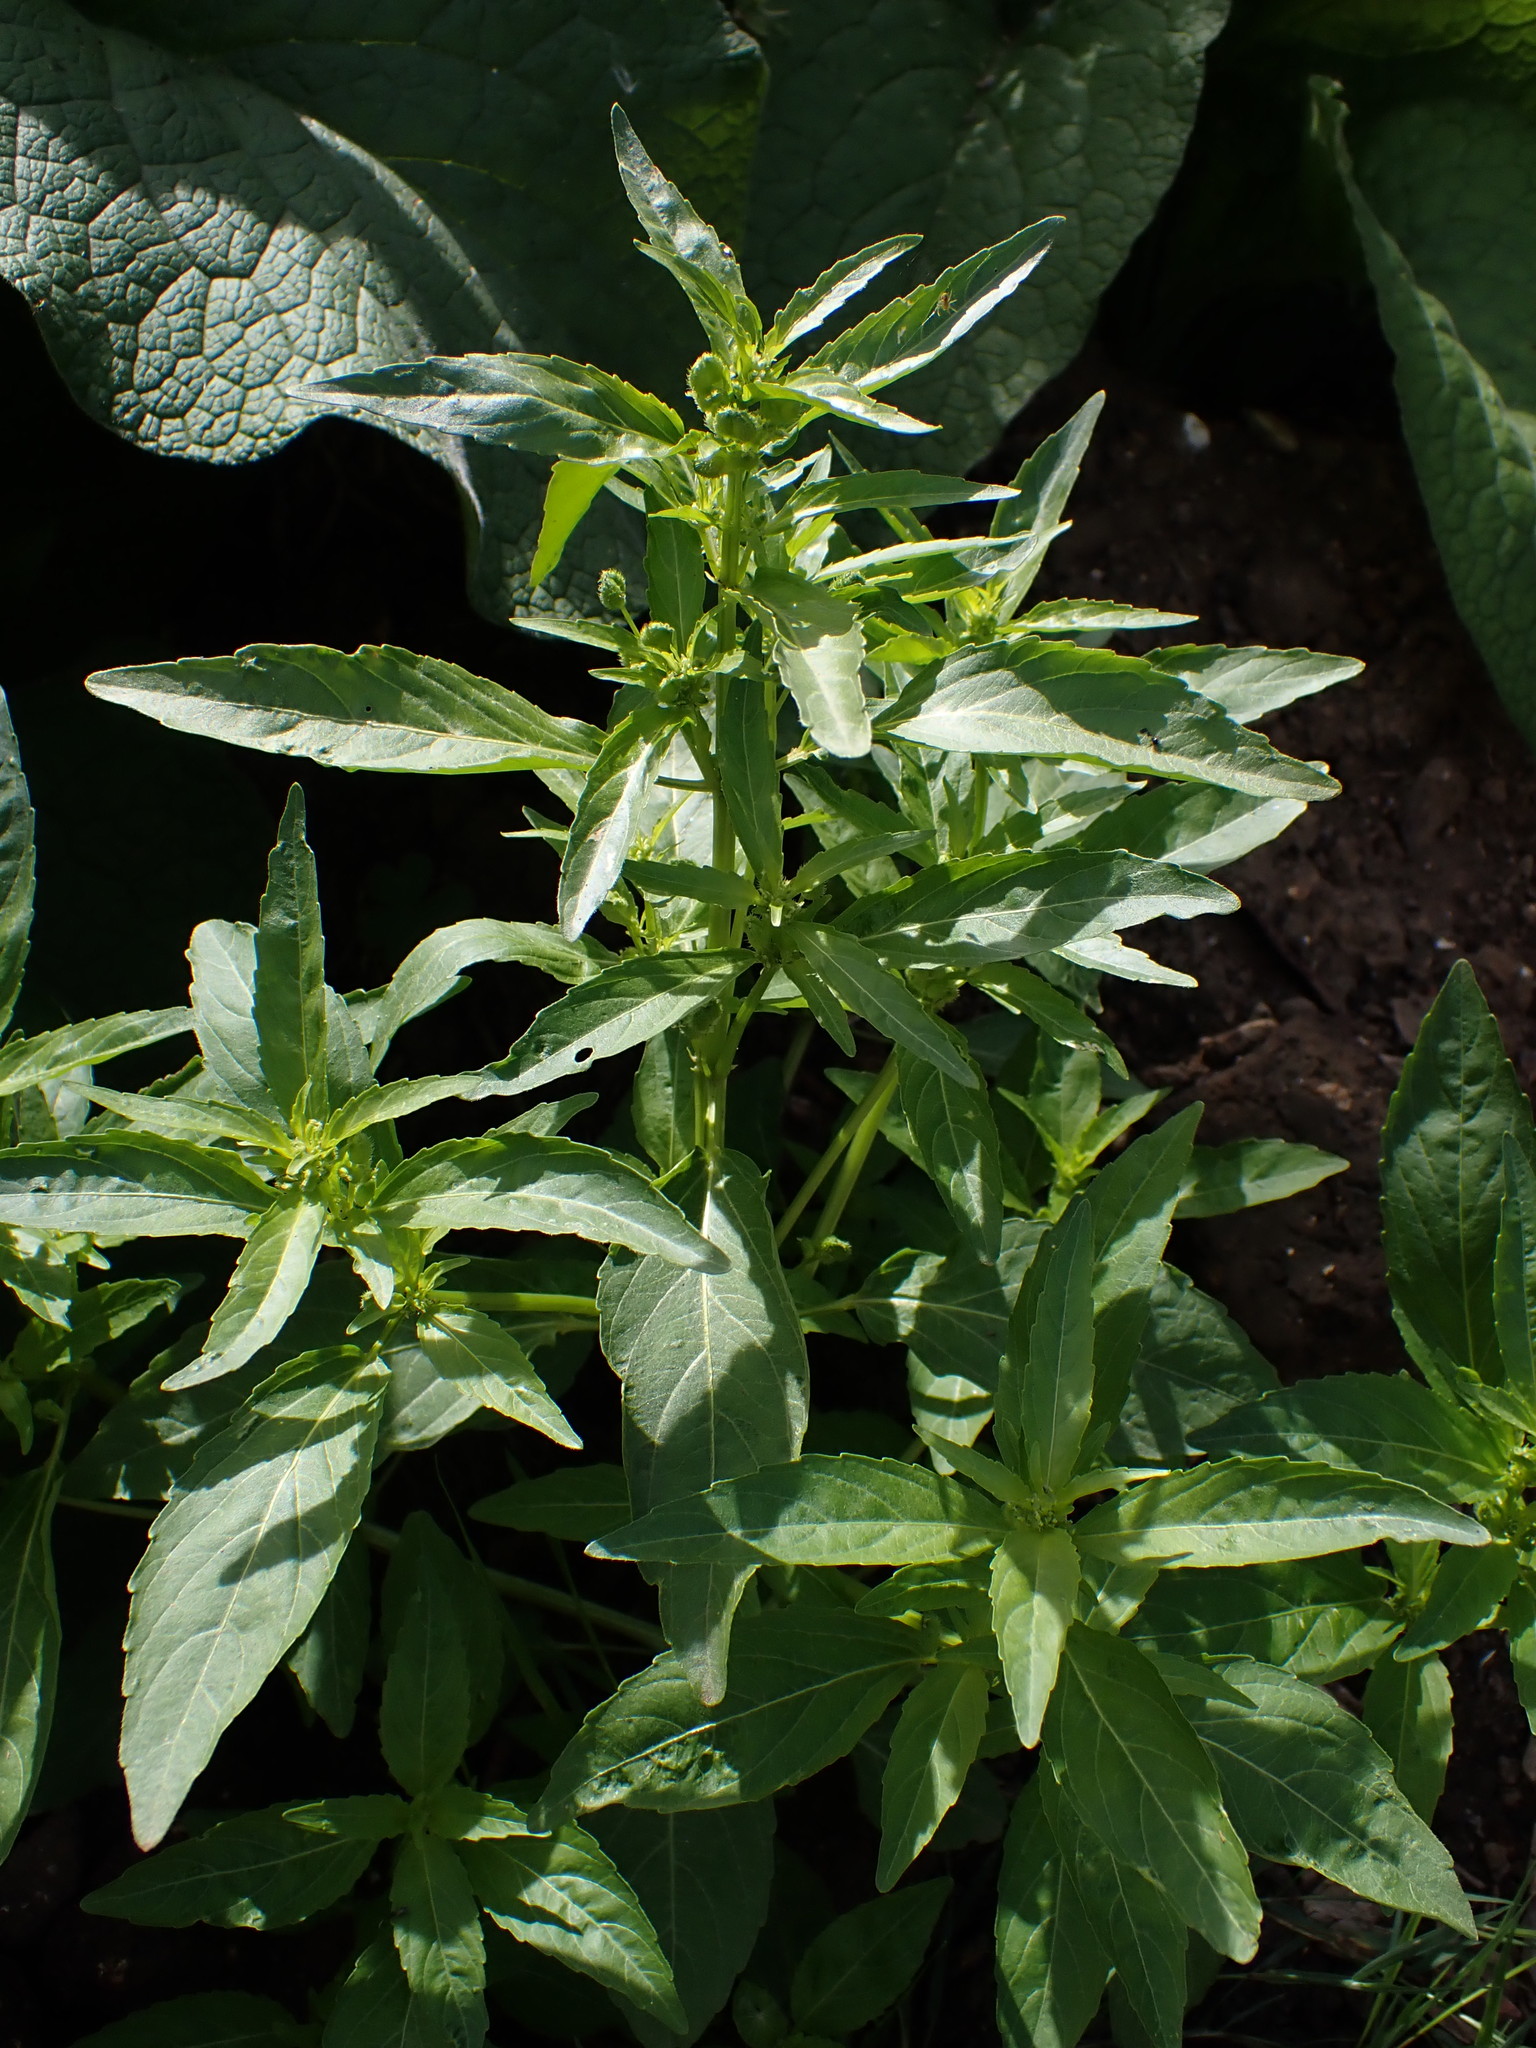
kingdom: Plantae
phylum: Tracheophyta
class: Magnoliopsida
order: Malpighiales
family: Euphorbiaceae
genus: Mercurialis
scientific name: Mercurialis annua
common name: Annual mercury
